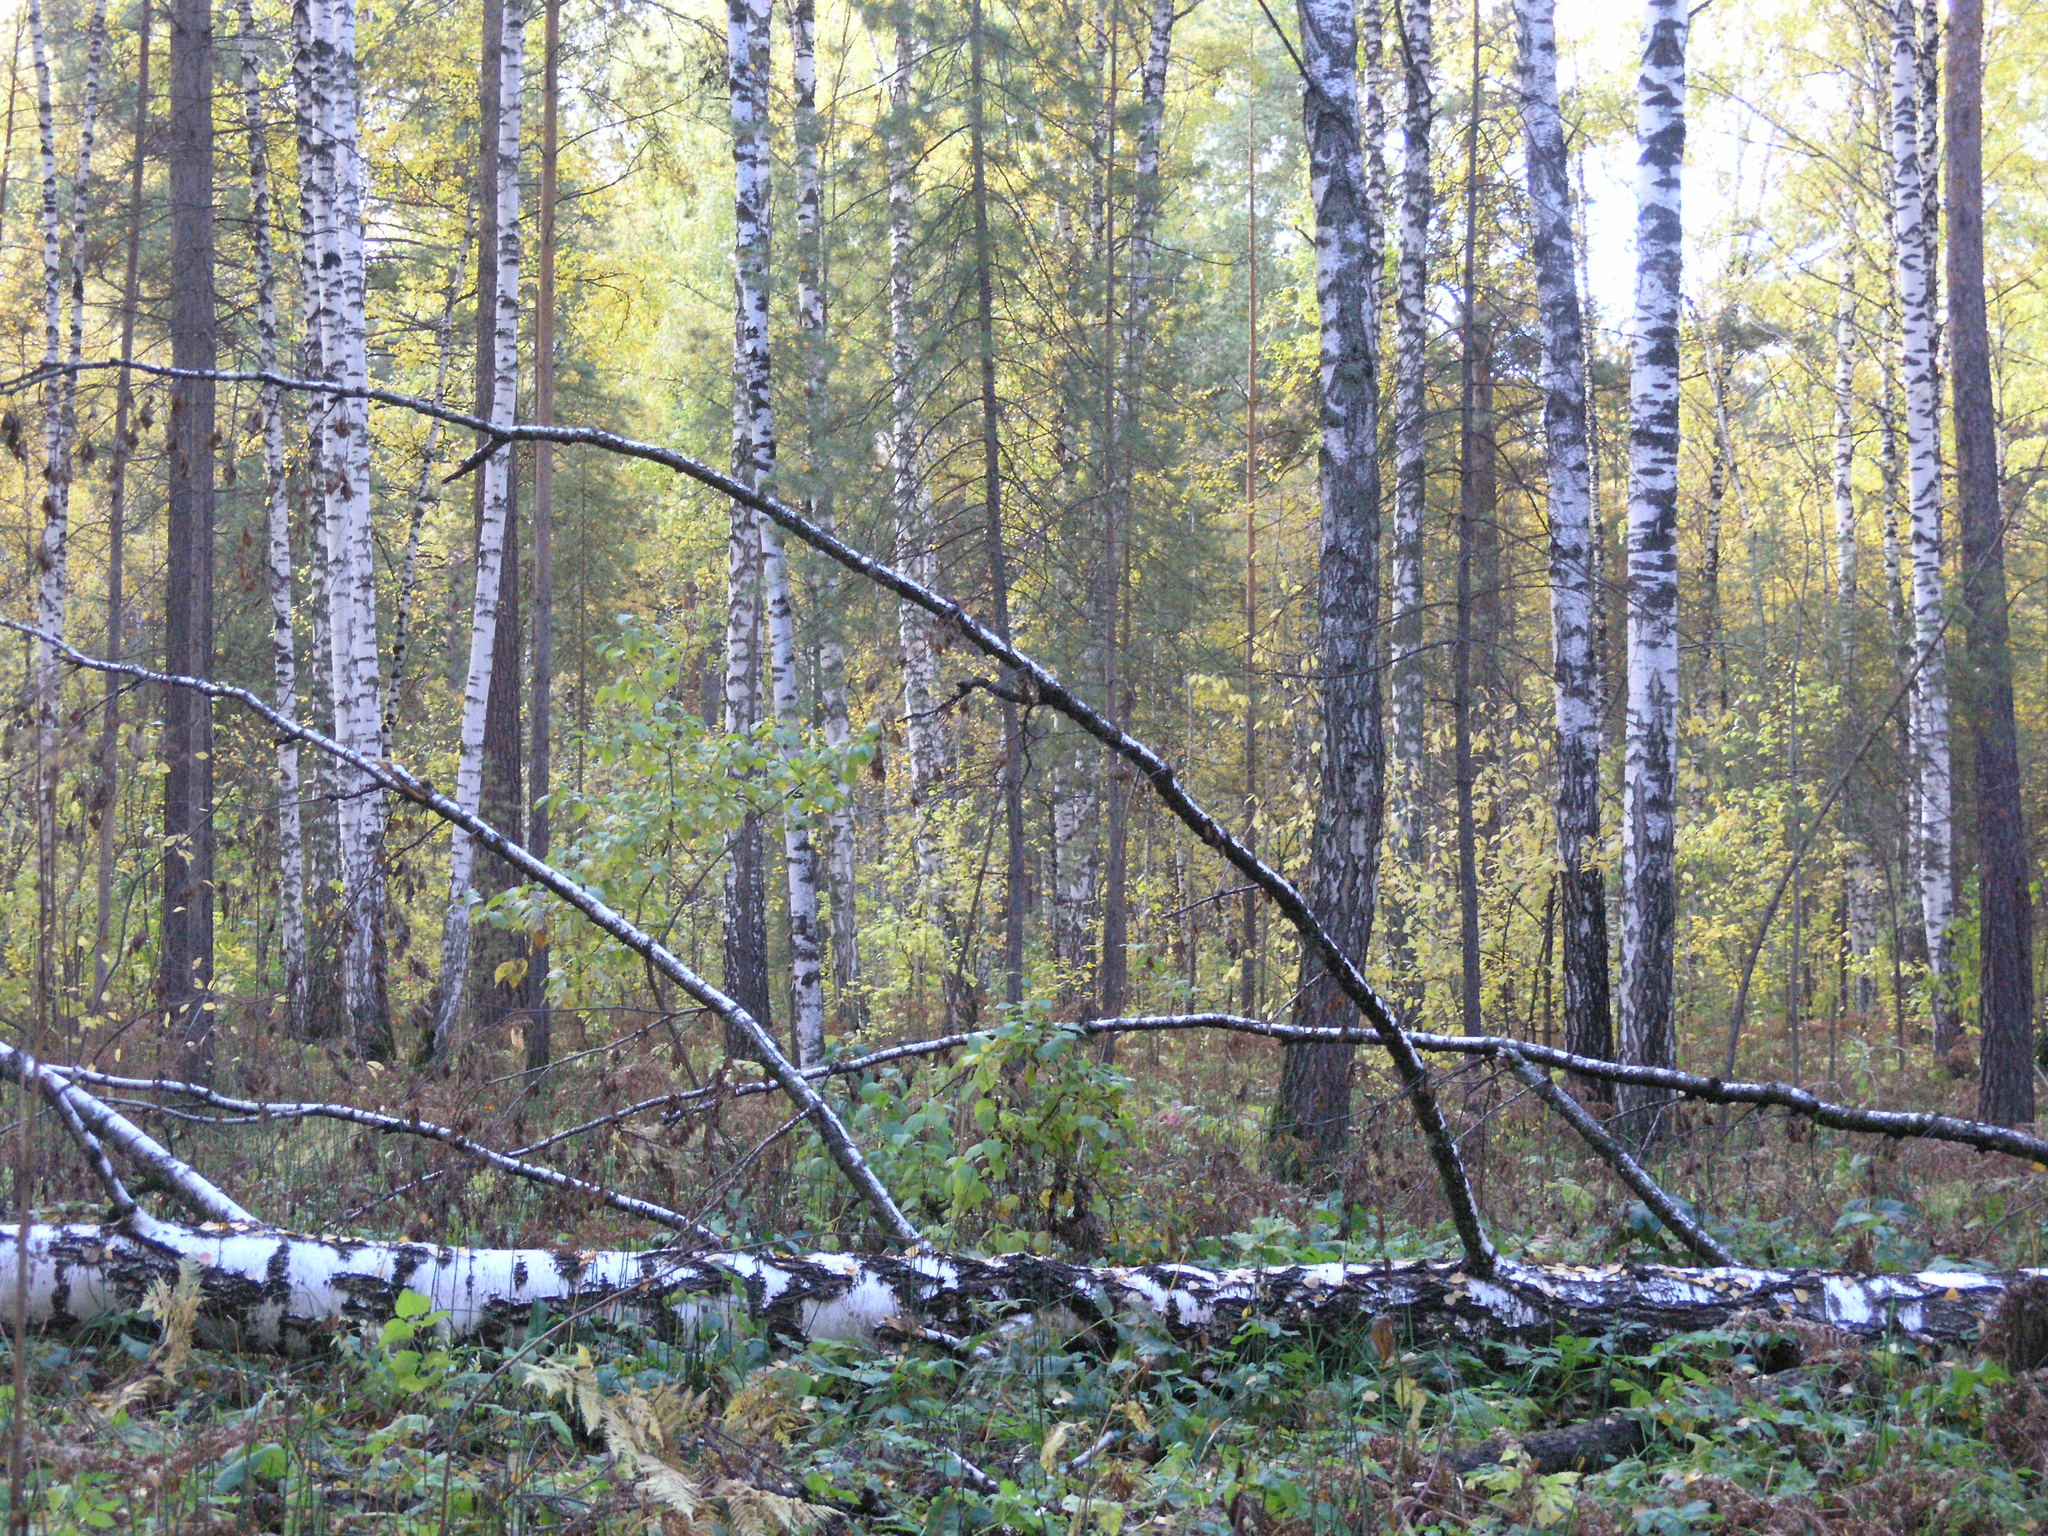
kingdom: Plantae
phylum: Tracheophyta
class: Magnoliopsida
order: Fagales
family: Betulaceae
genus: Betula
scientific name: Betula pendula
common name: Silver birch
